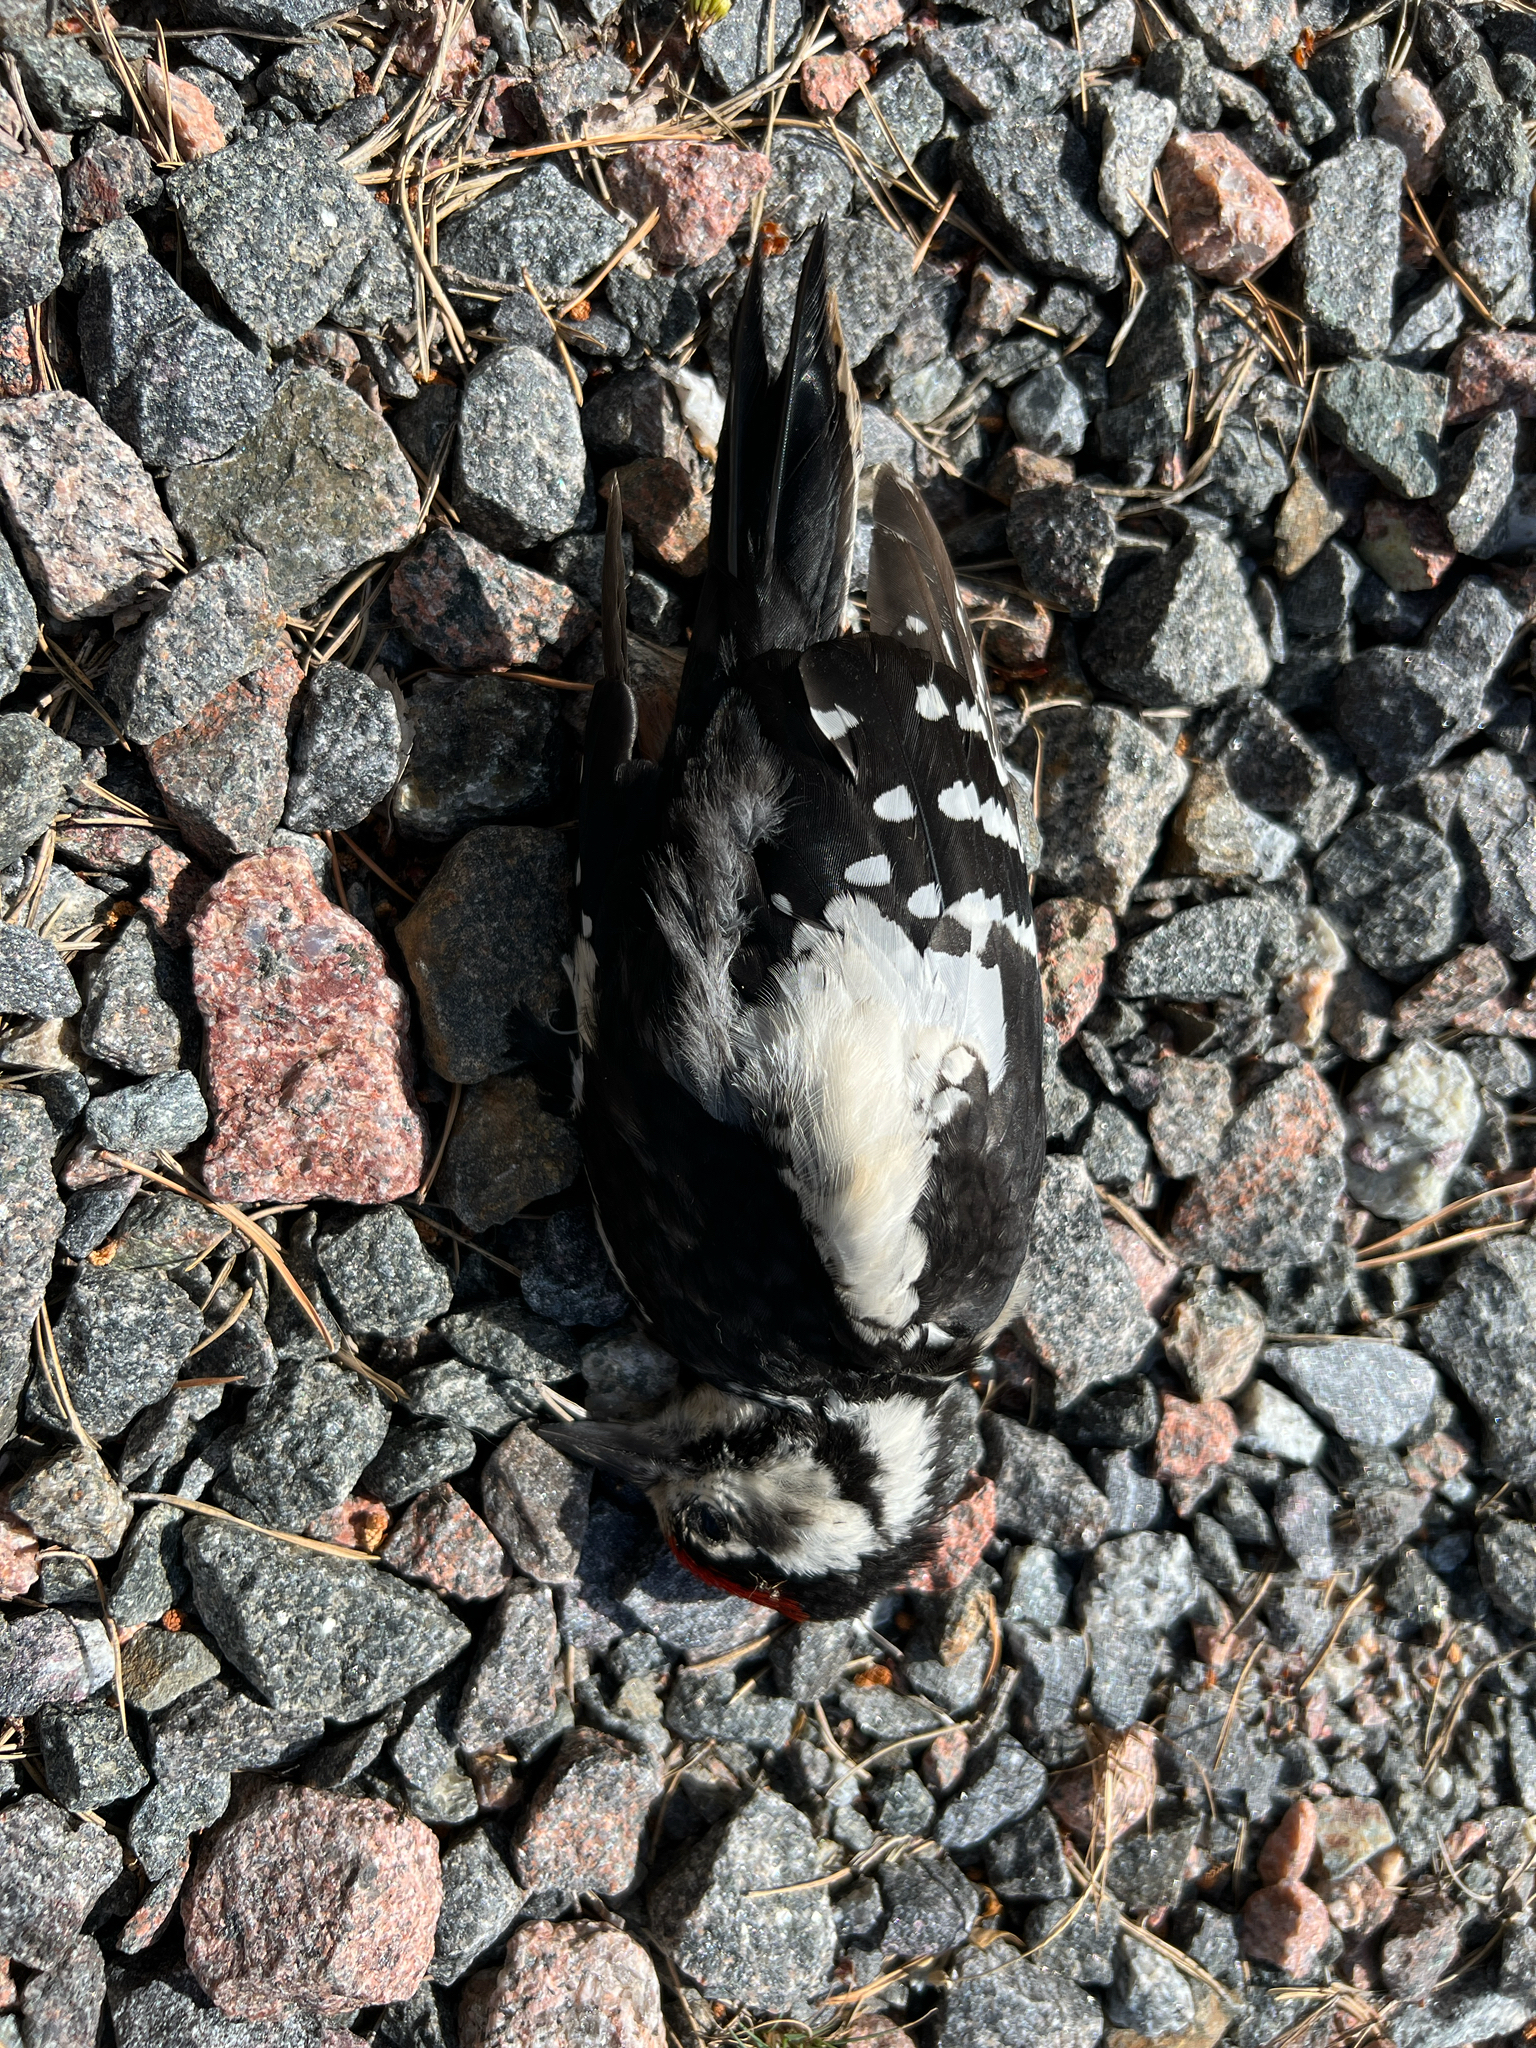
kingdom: Animalia
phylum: Chordata
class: Aves
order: Piciformes
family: Picidae
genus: Dendrocopos
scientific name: Dendrocopos major
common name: Great spotted woodpecker
